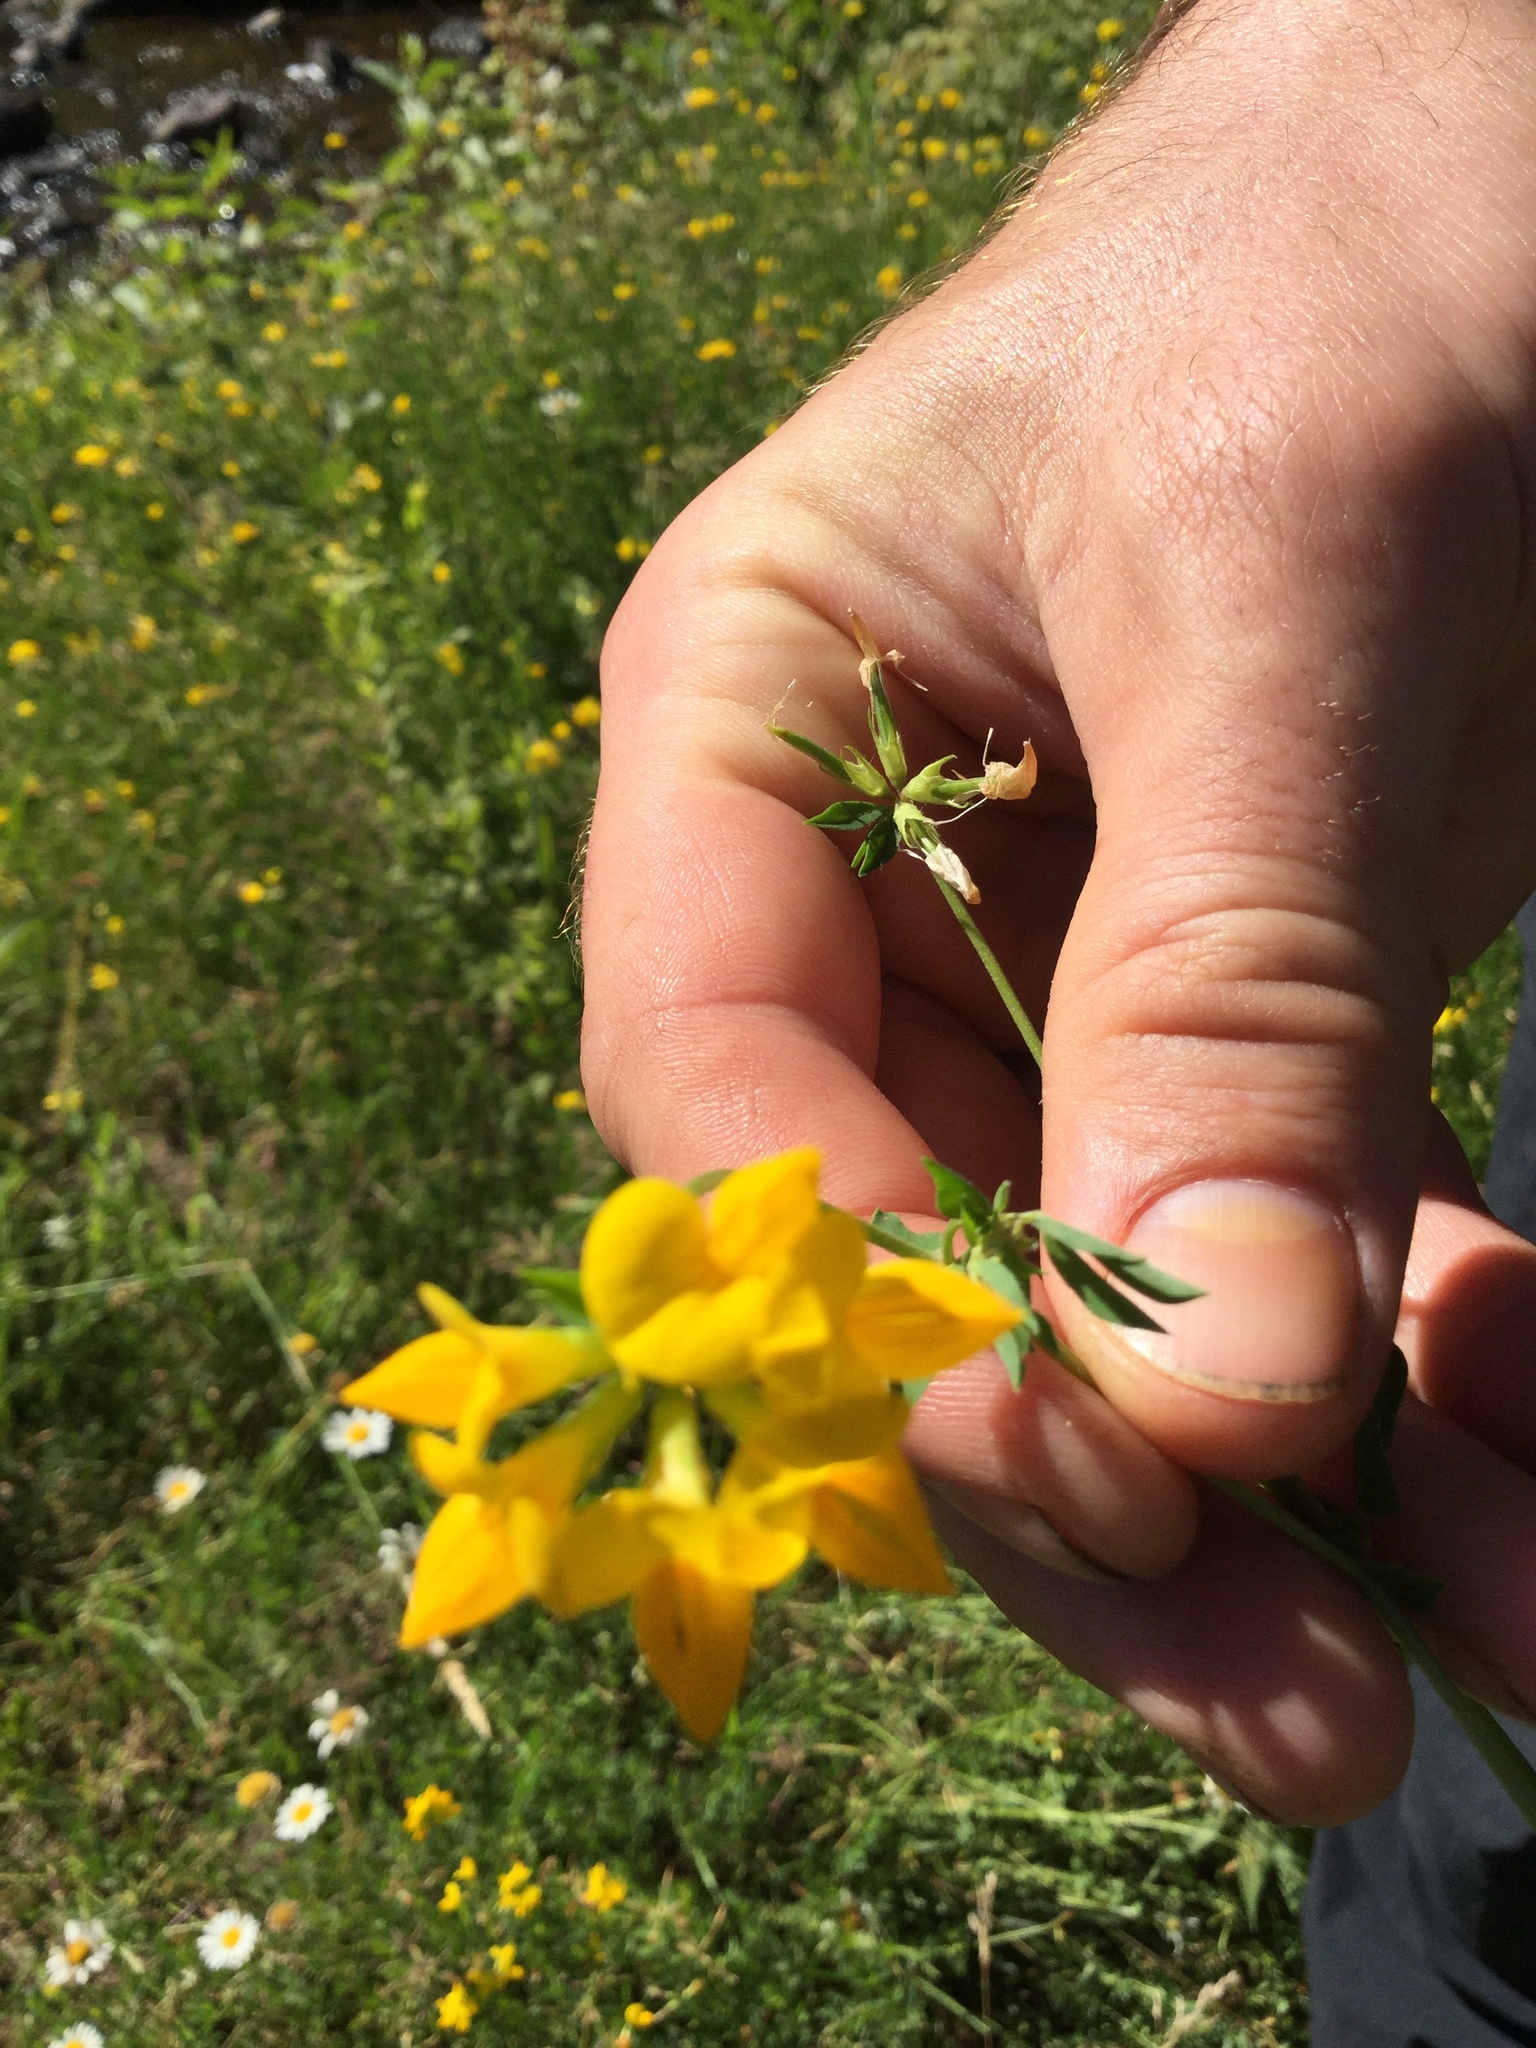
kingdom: Plantae
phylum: Tracheophyta
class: Magnoliopsida
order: Fabales
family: Fabaceae
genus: Lotus
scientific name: Lotus corniculatus
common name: Common bird's-foot-trefoil
